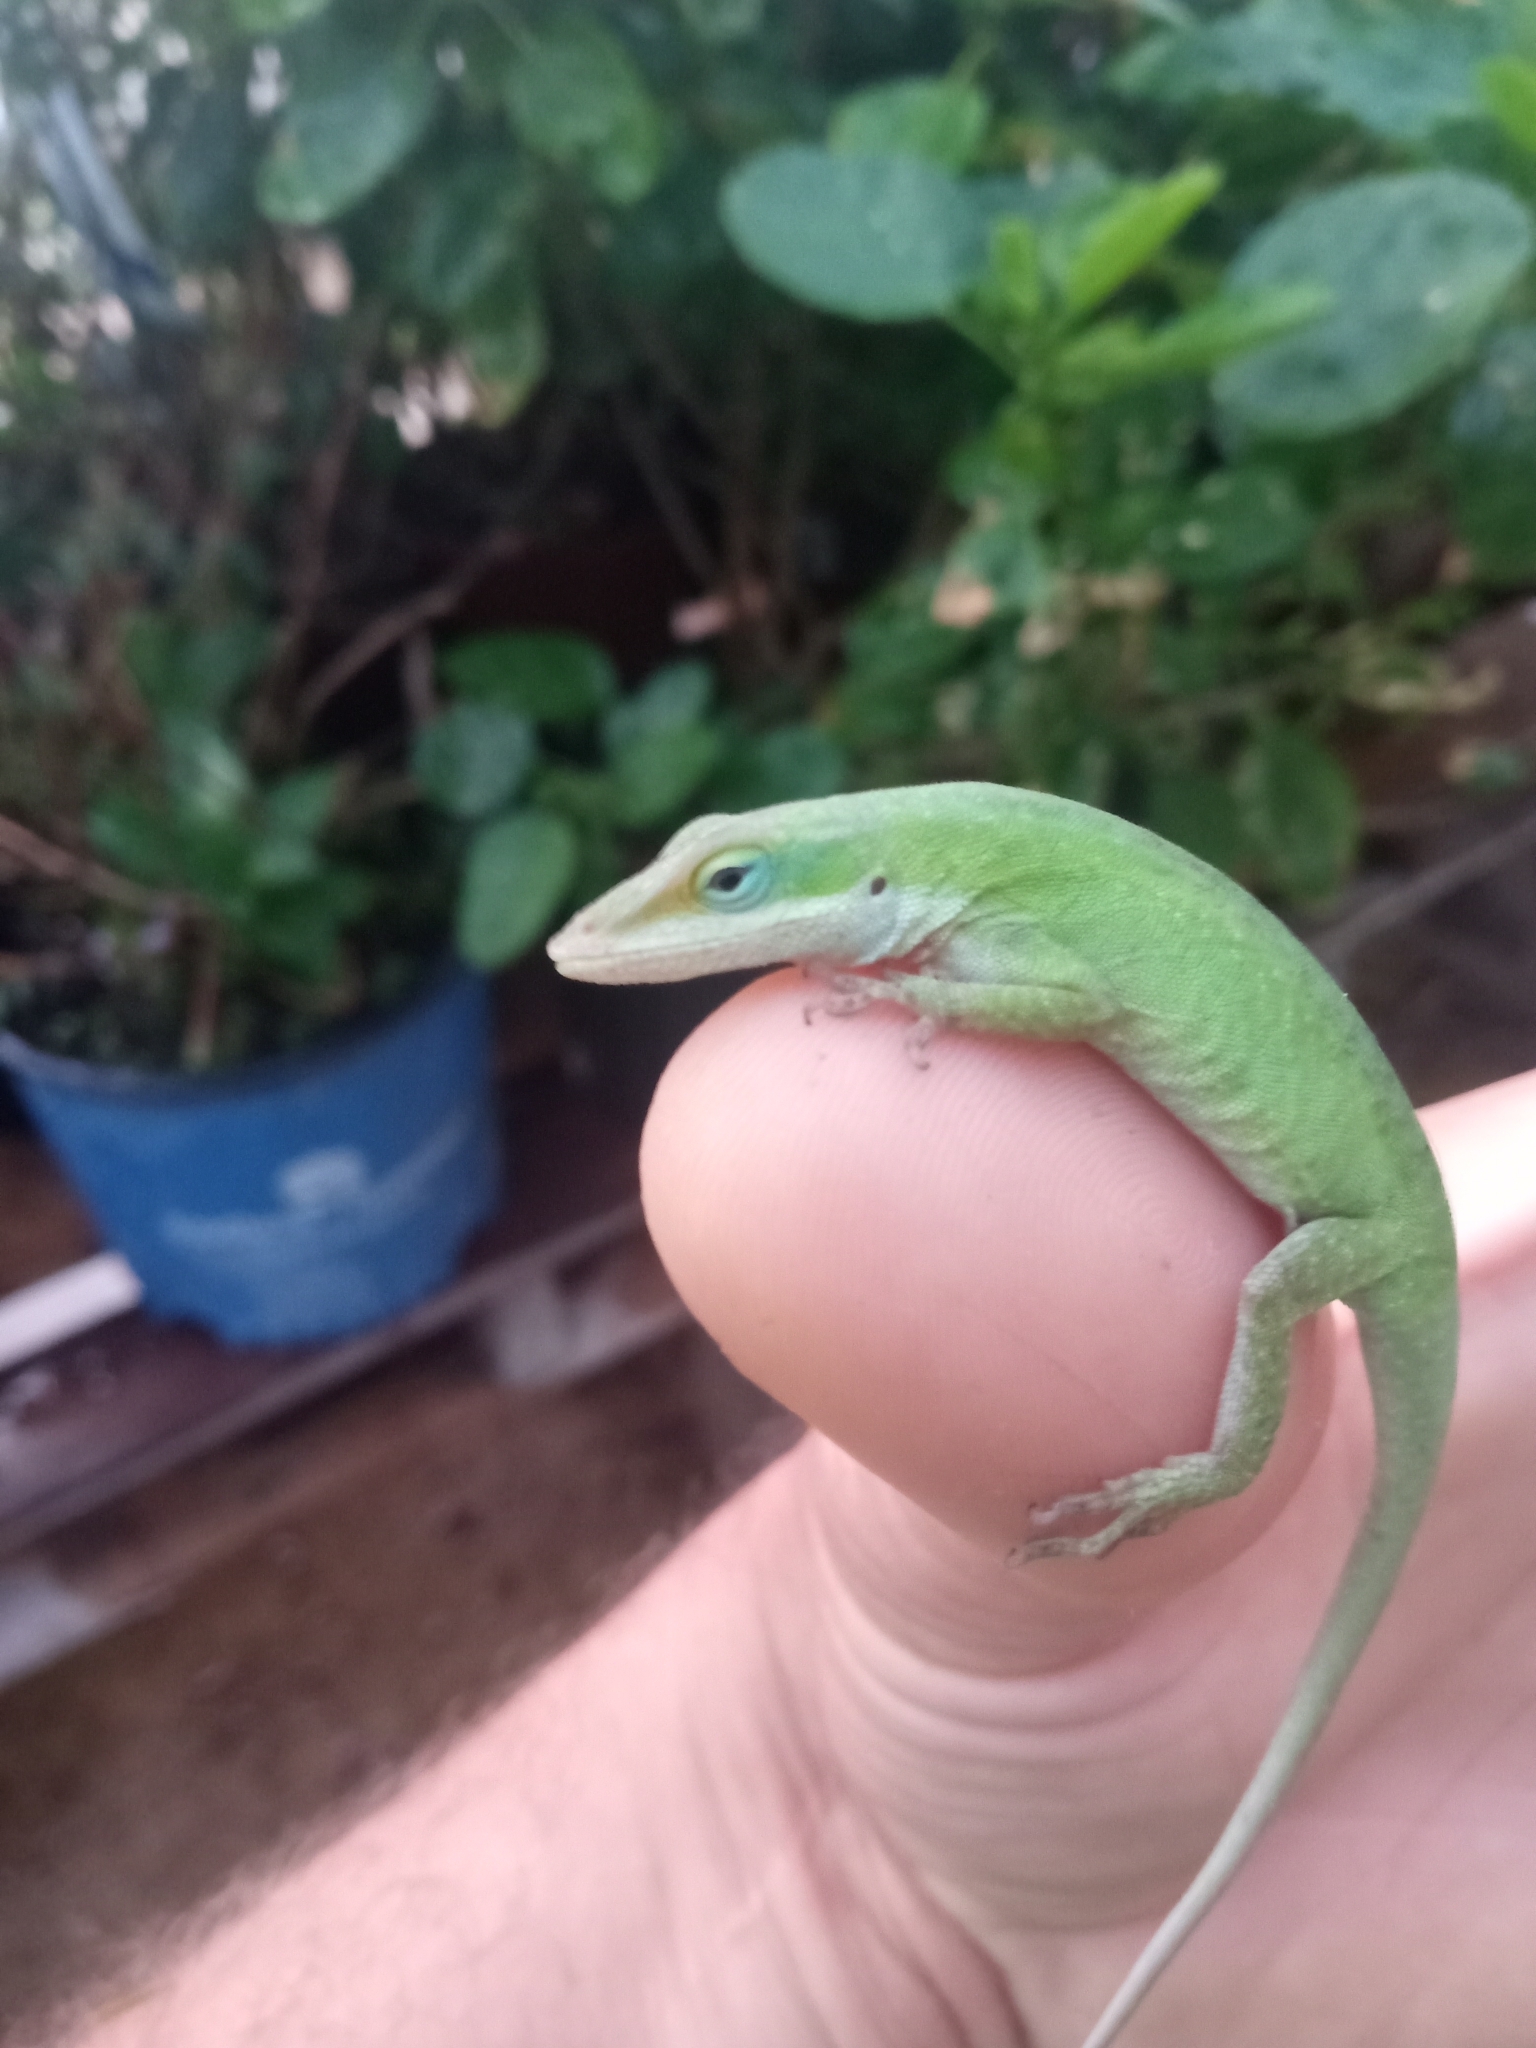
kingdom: Animalia
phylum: Chordata
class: Squamata
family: Dactyloidae
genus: Anolis
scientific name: Anolis carolinensis
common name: Green anole
